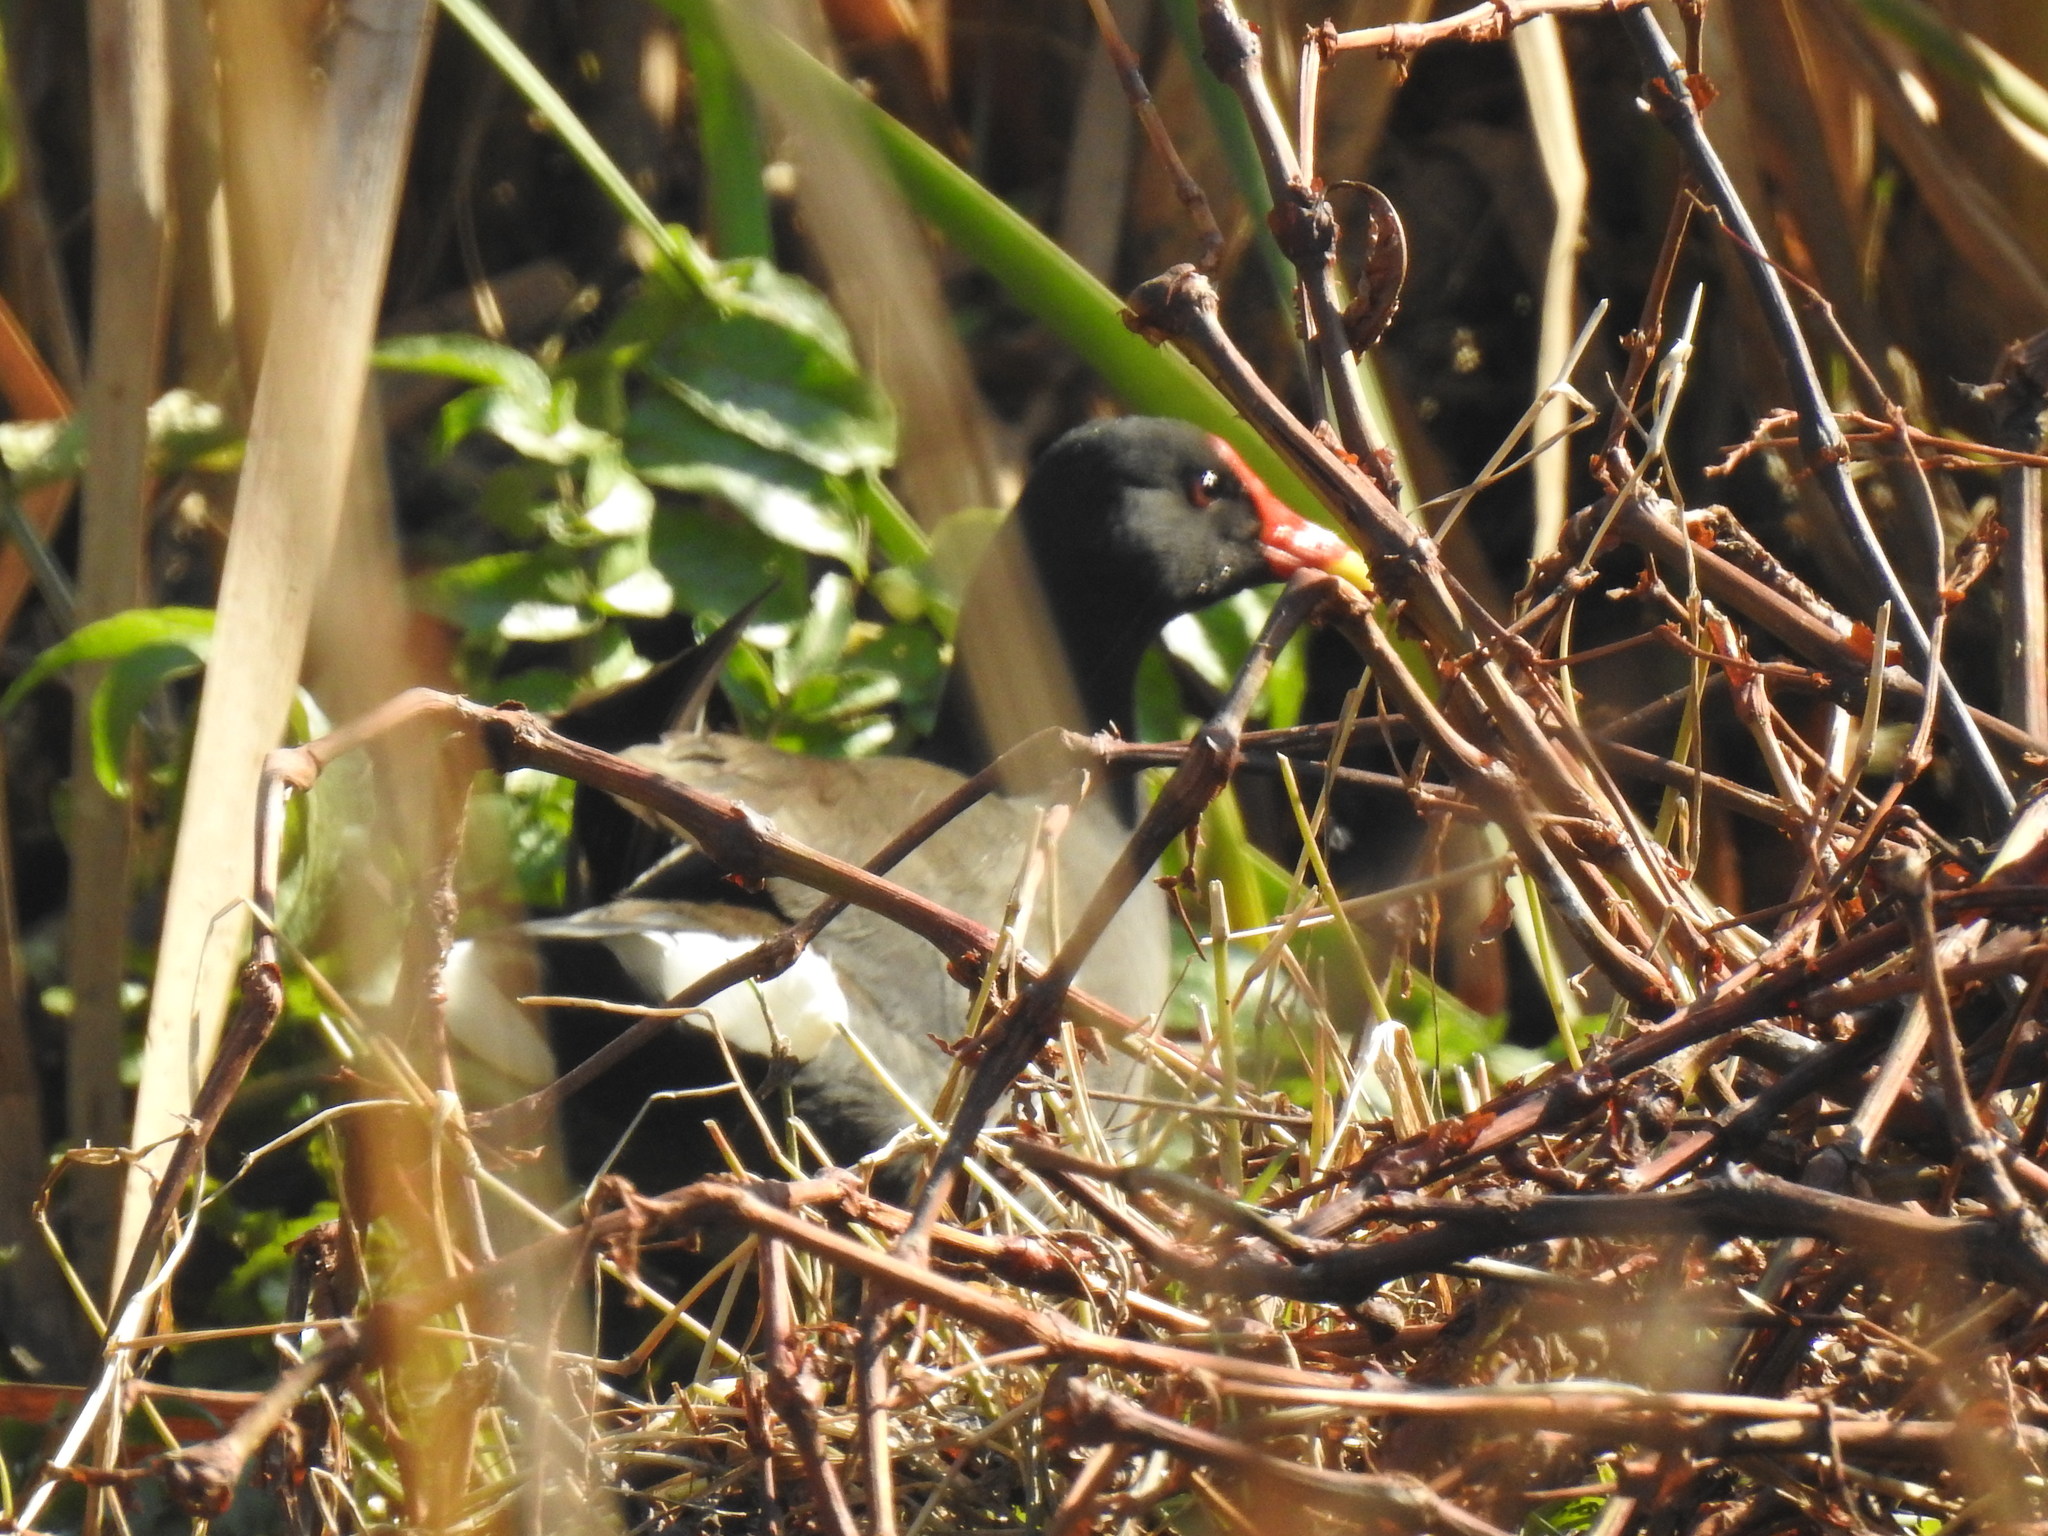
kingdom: Animalia
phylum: Chordata
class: Aves
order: Gruiformes
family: Rallidae
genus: Gallinula
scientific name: Gallinula chloropus
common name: Common moorhen
